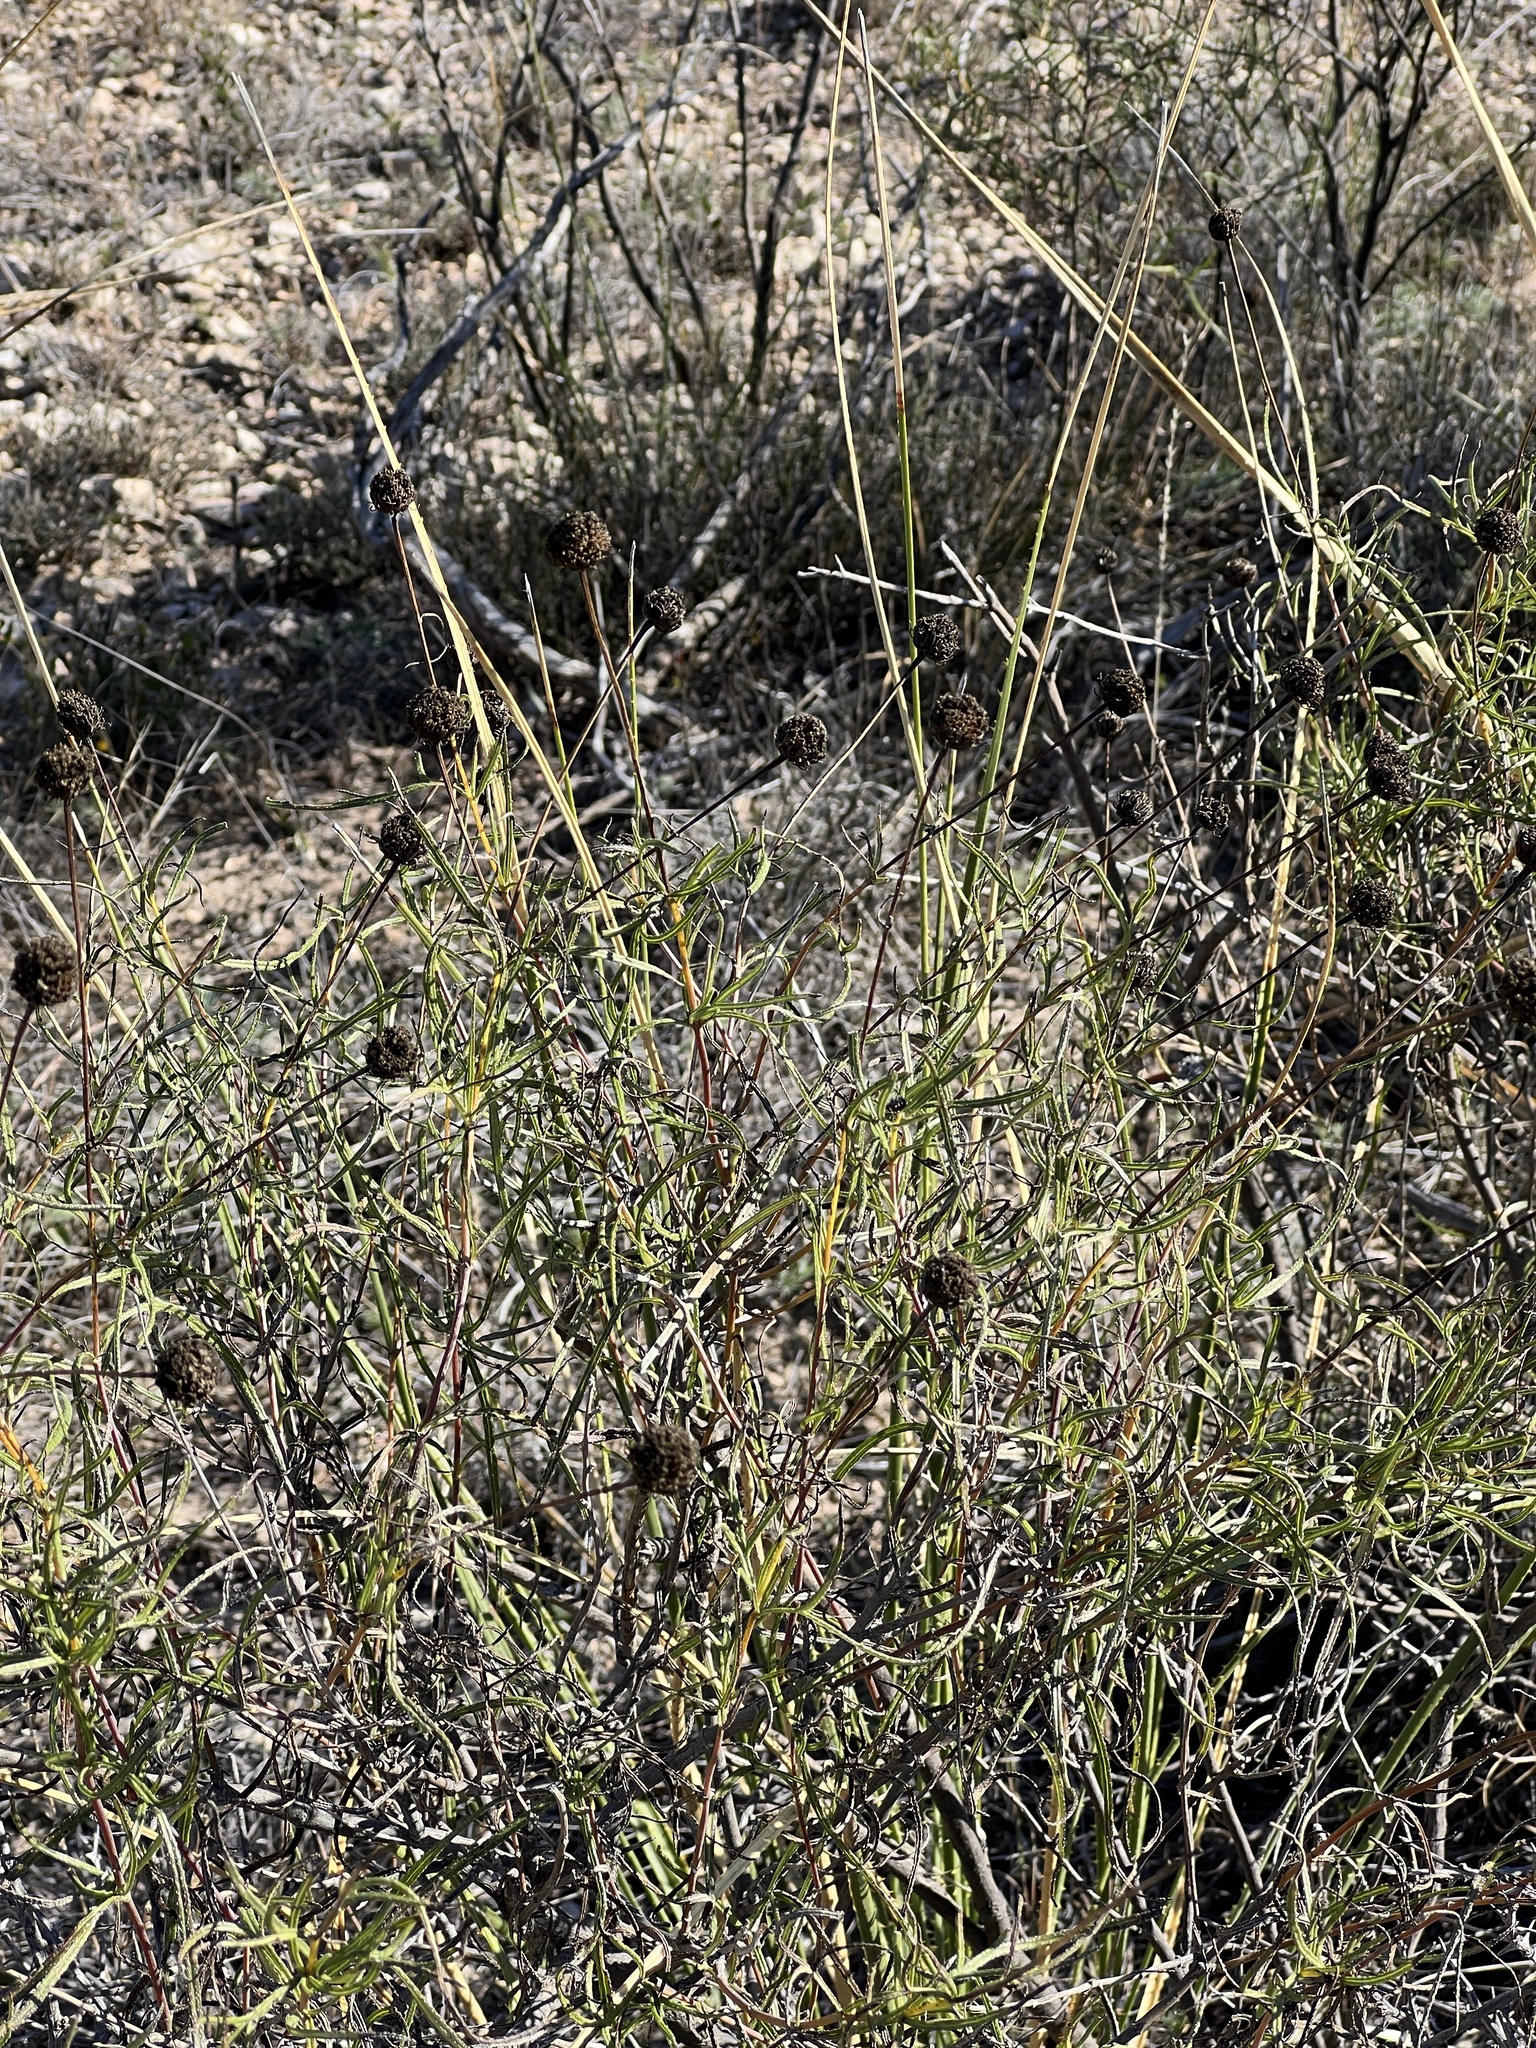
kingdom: Plantae
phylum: Tracheophyta
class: Magnoliopsida
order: Asterales
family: Asteraceae
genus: Sidneya
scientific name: Sidneya tenuifolia
